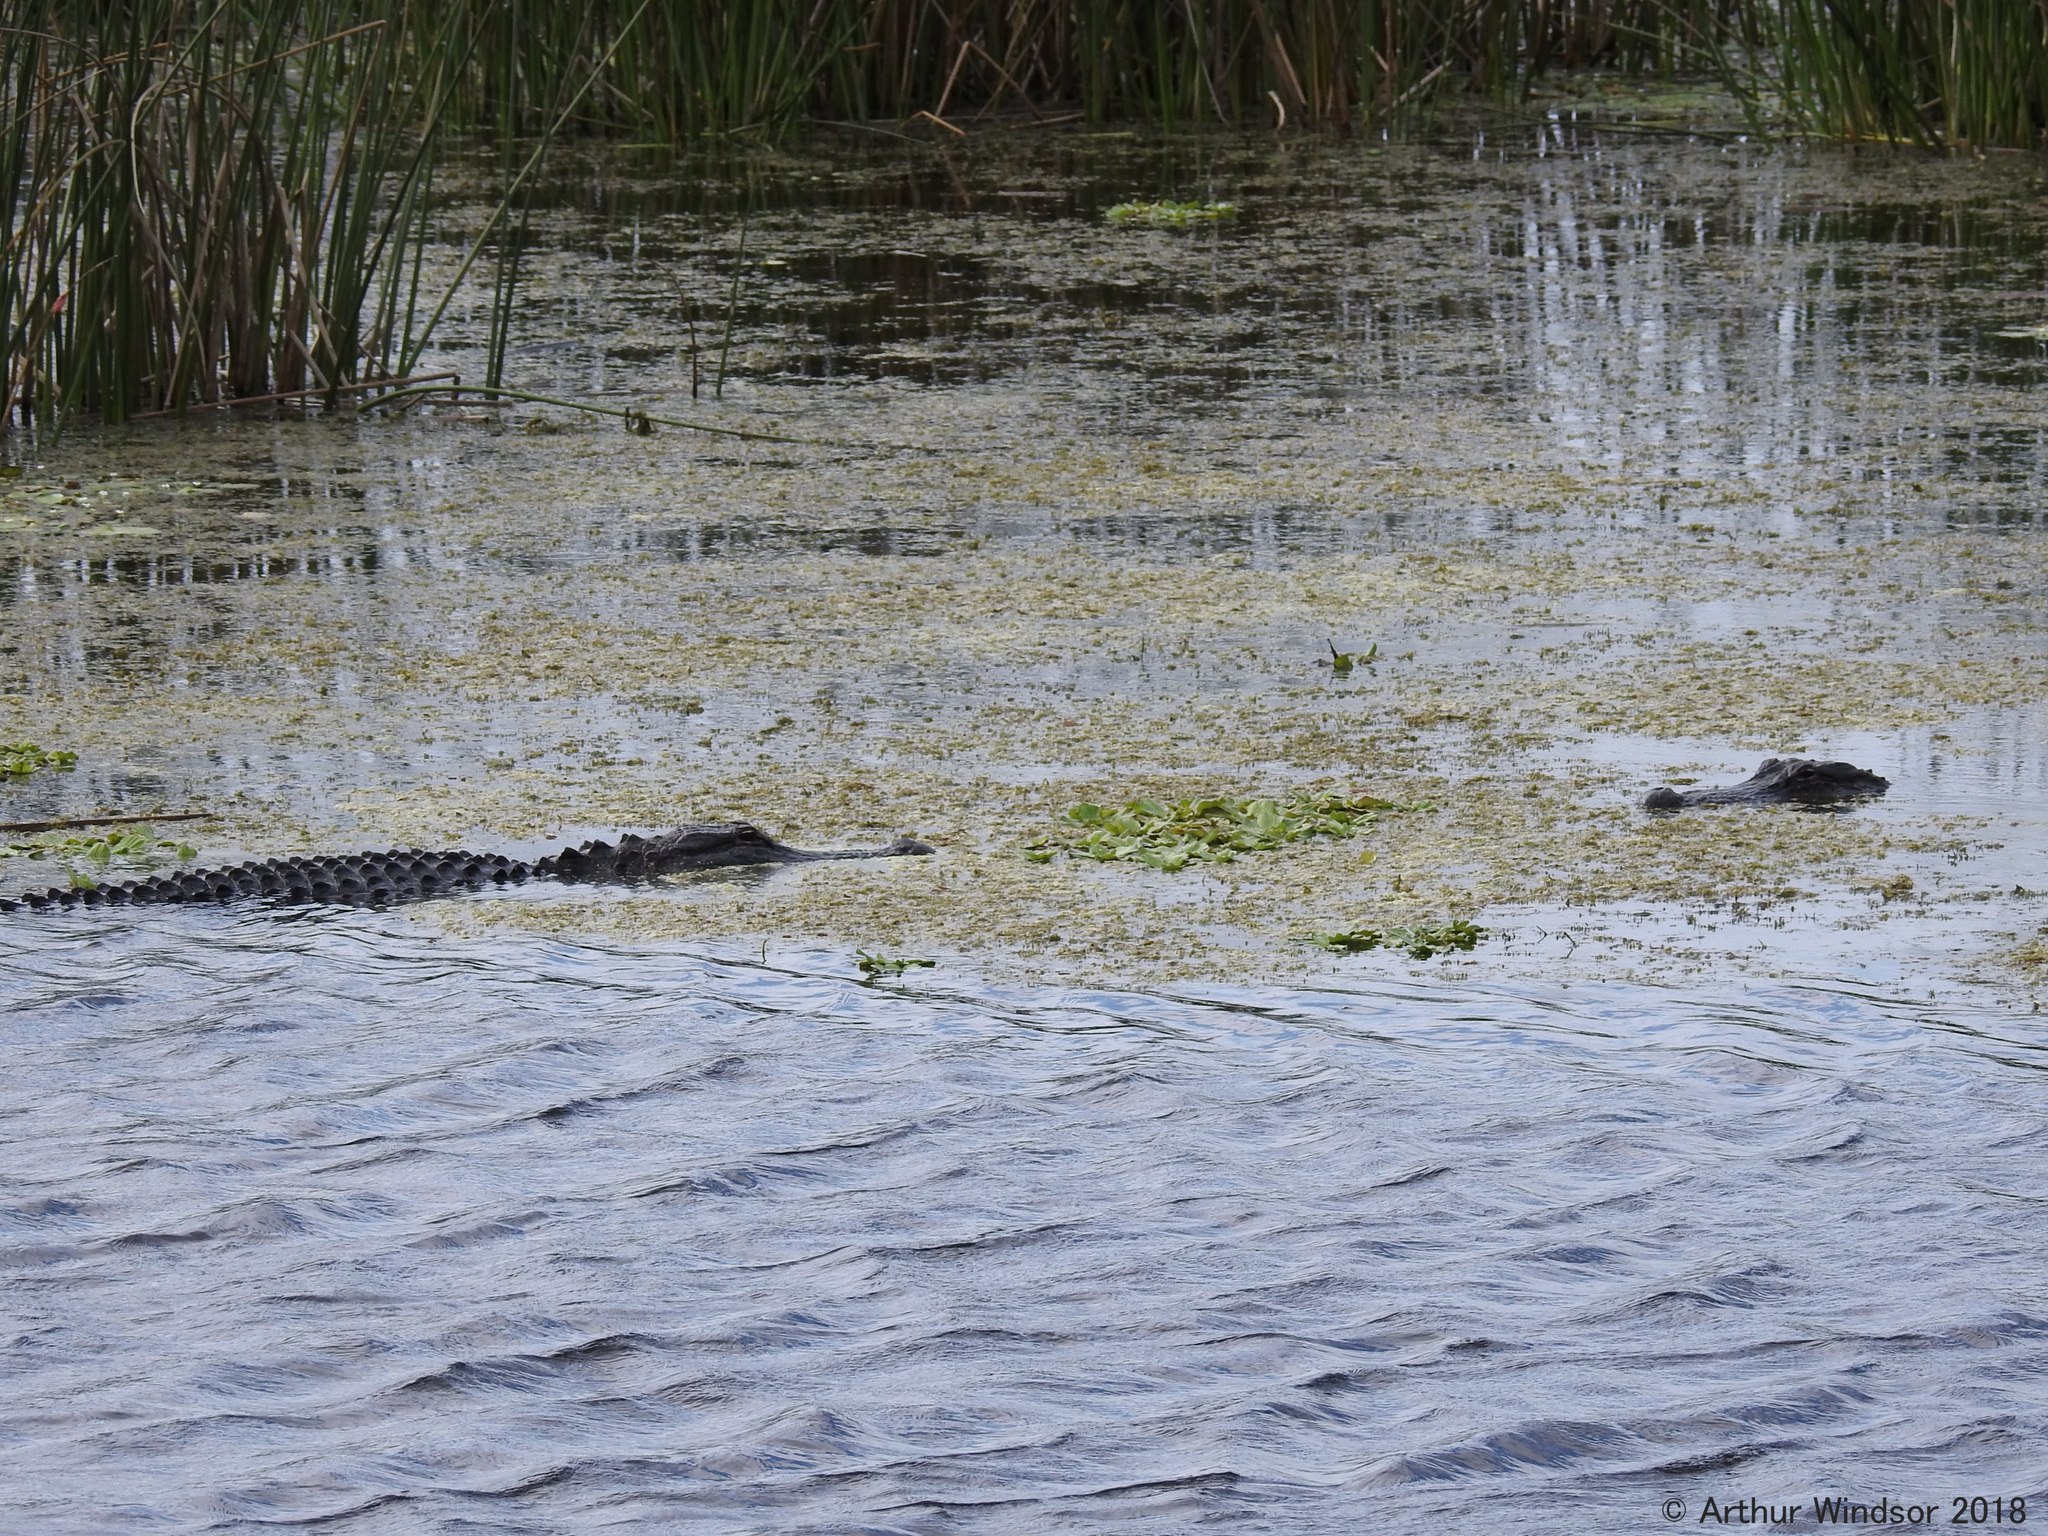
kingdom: Animalia
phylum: Chordata
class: Crocodylia
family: Alligatoridae
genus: Alligator
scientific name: Alligator mississippiensis
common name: American alligator
